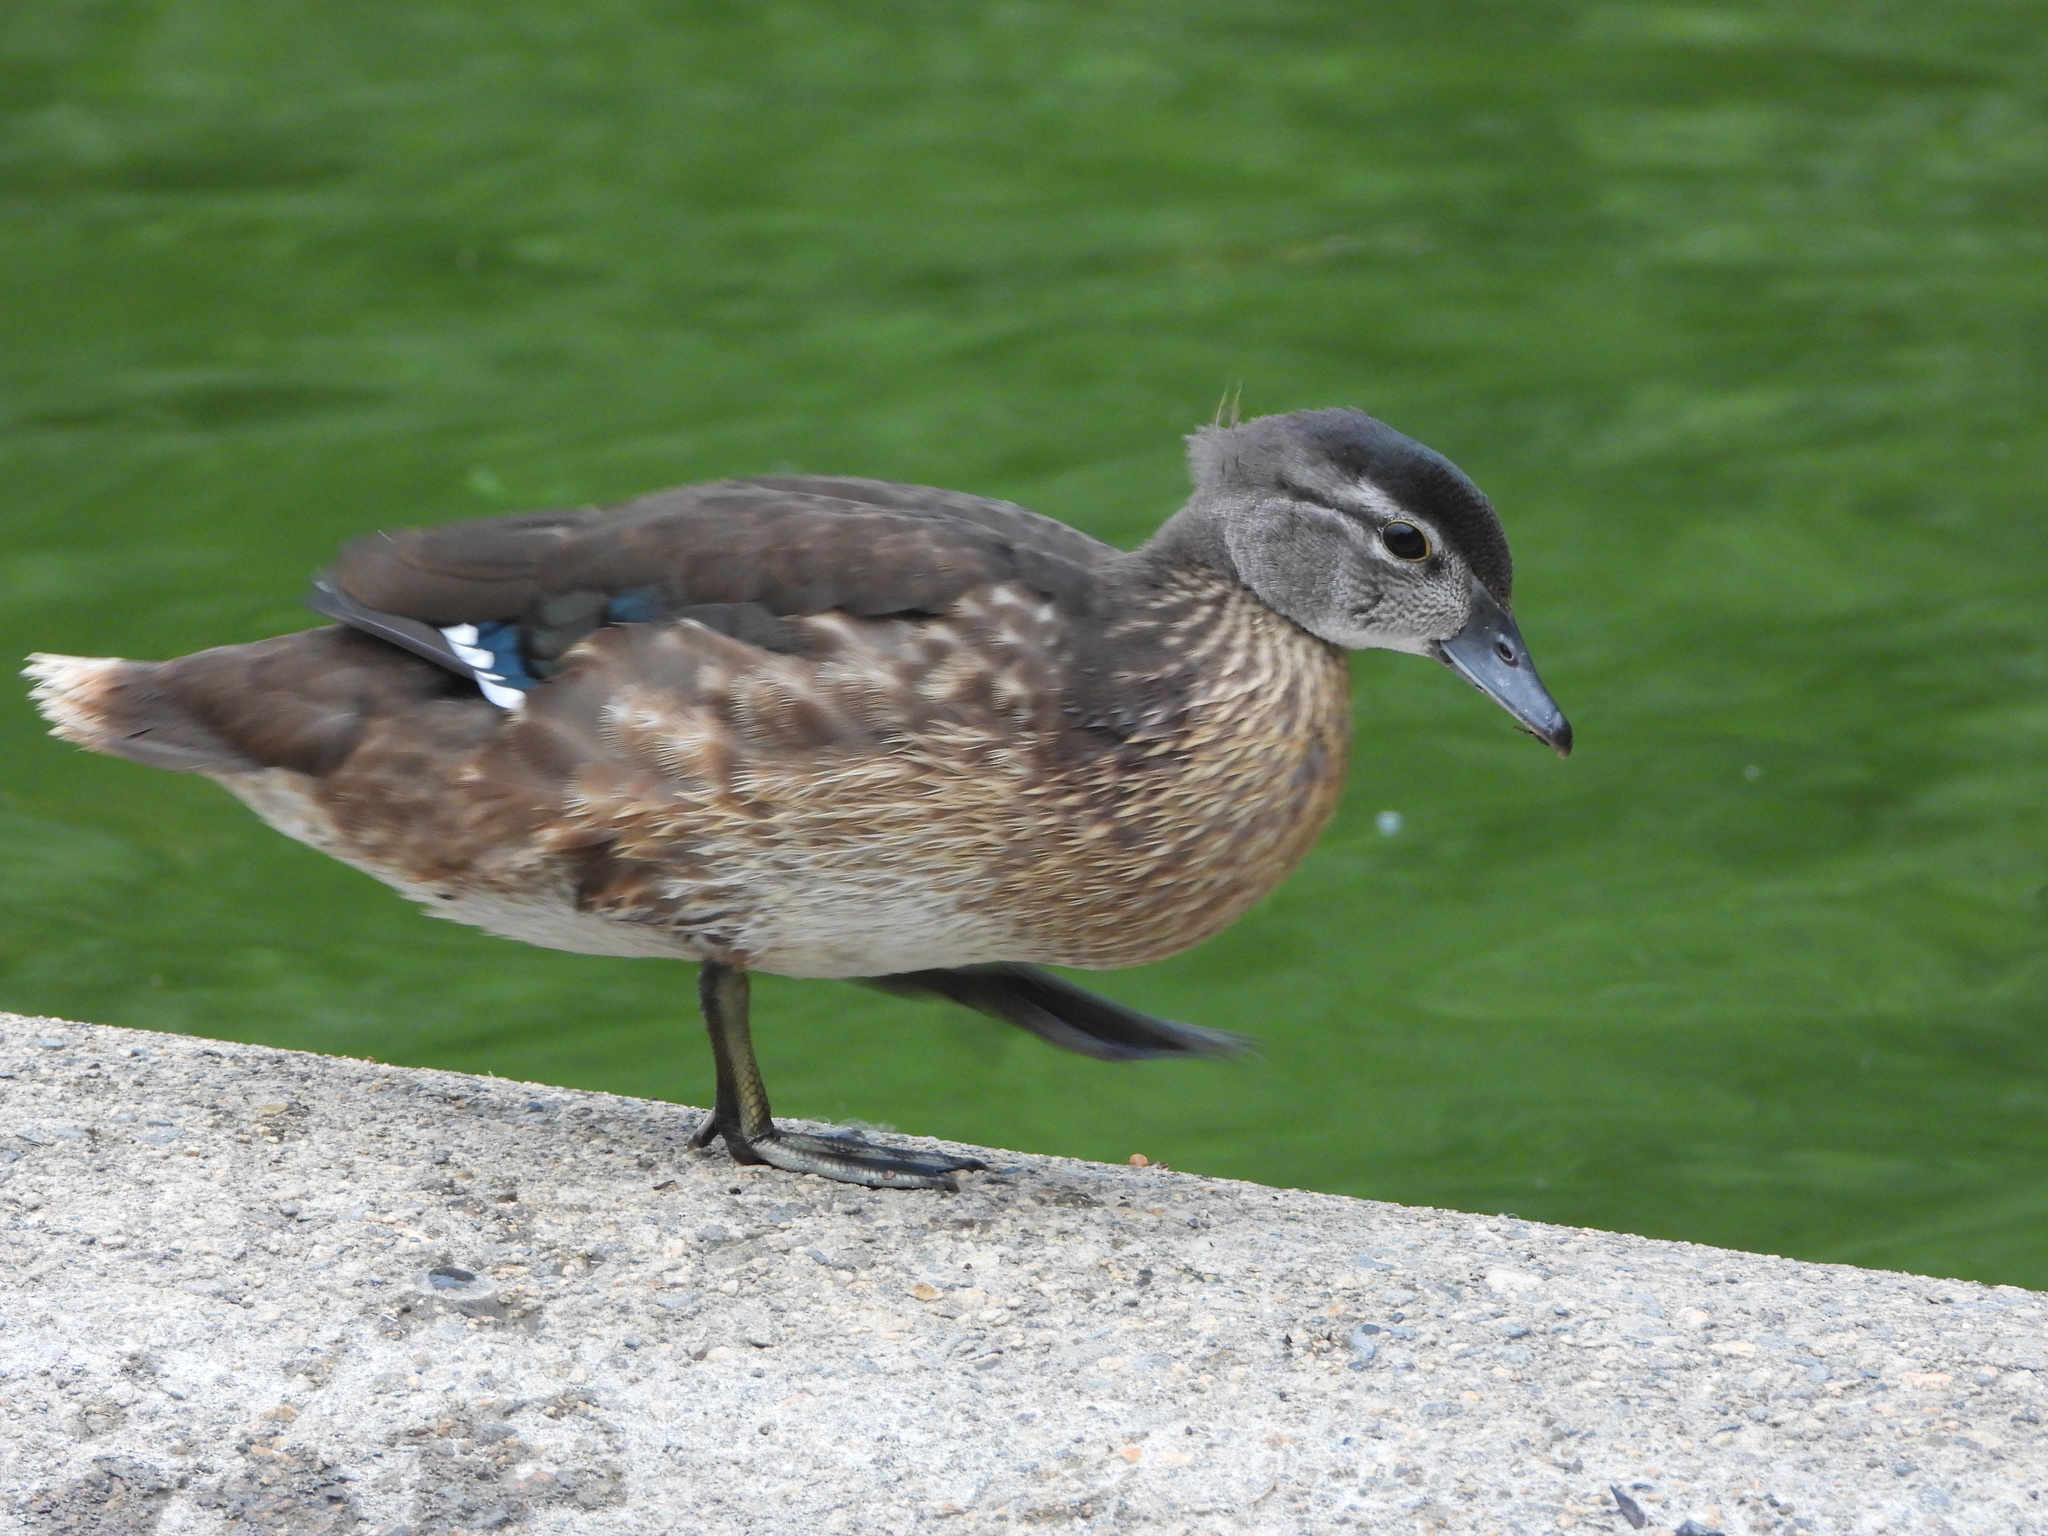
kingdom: Animalia
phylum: Chordata
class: Aves
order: Anseriformes
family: Anatidae
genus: Aix
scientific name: Aix sponsa
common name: Wood duck
